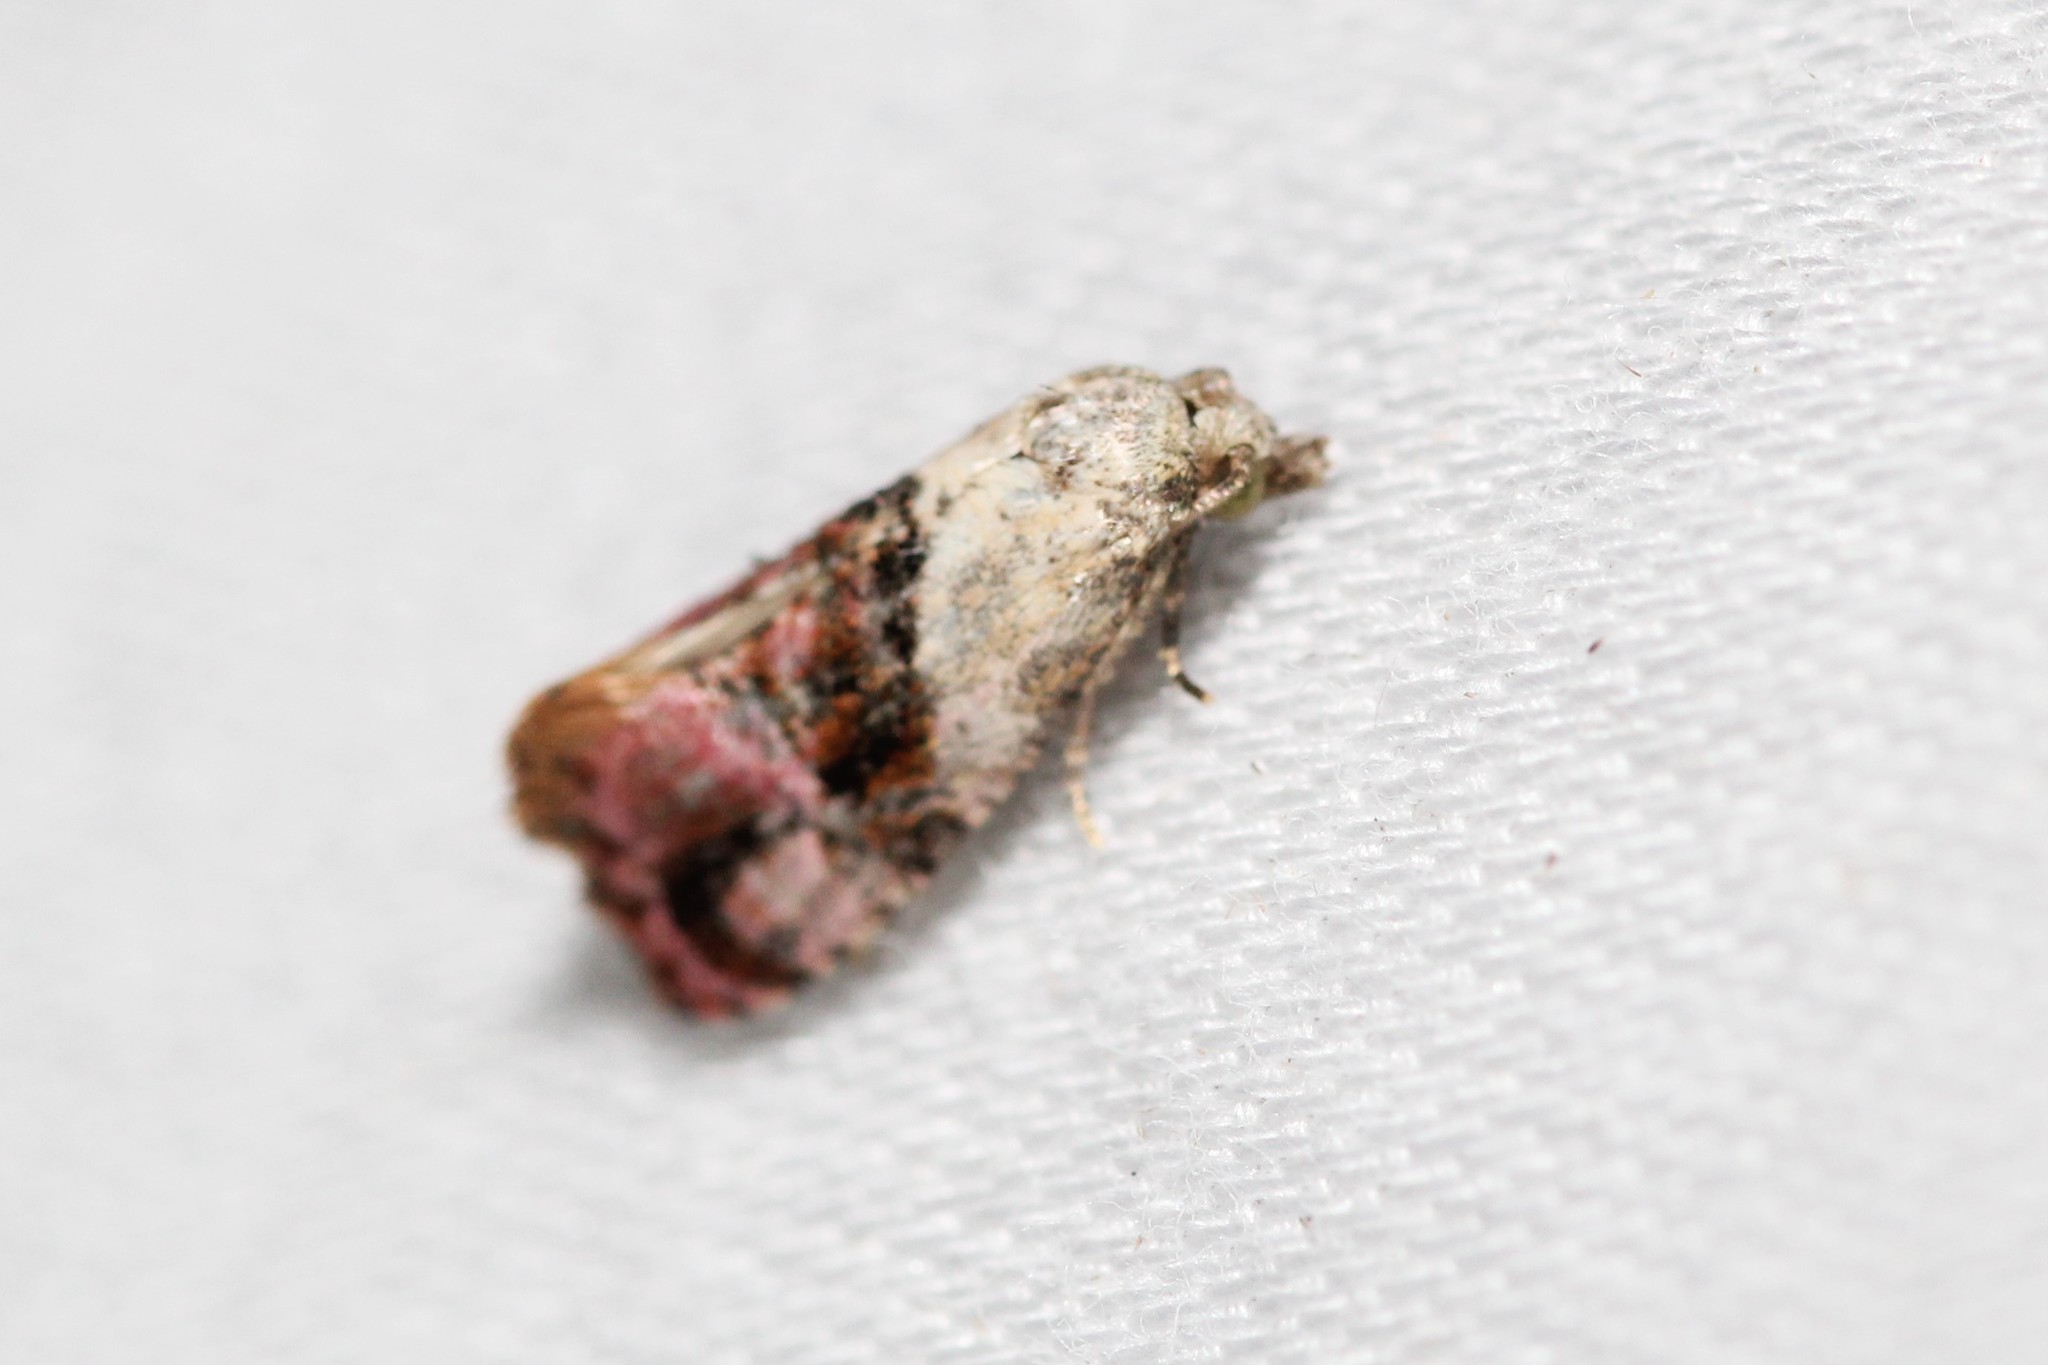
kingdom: Animalia
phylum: Arthropoda
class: Insecta
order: Lepidoptera
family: Tortricidae
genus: Thyraylia
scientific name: Thyraylia hollandana
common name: Holland's cochylid moth
